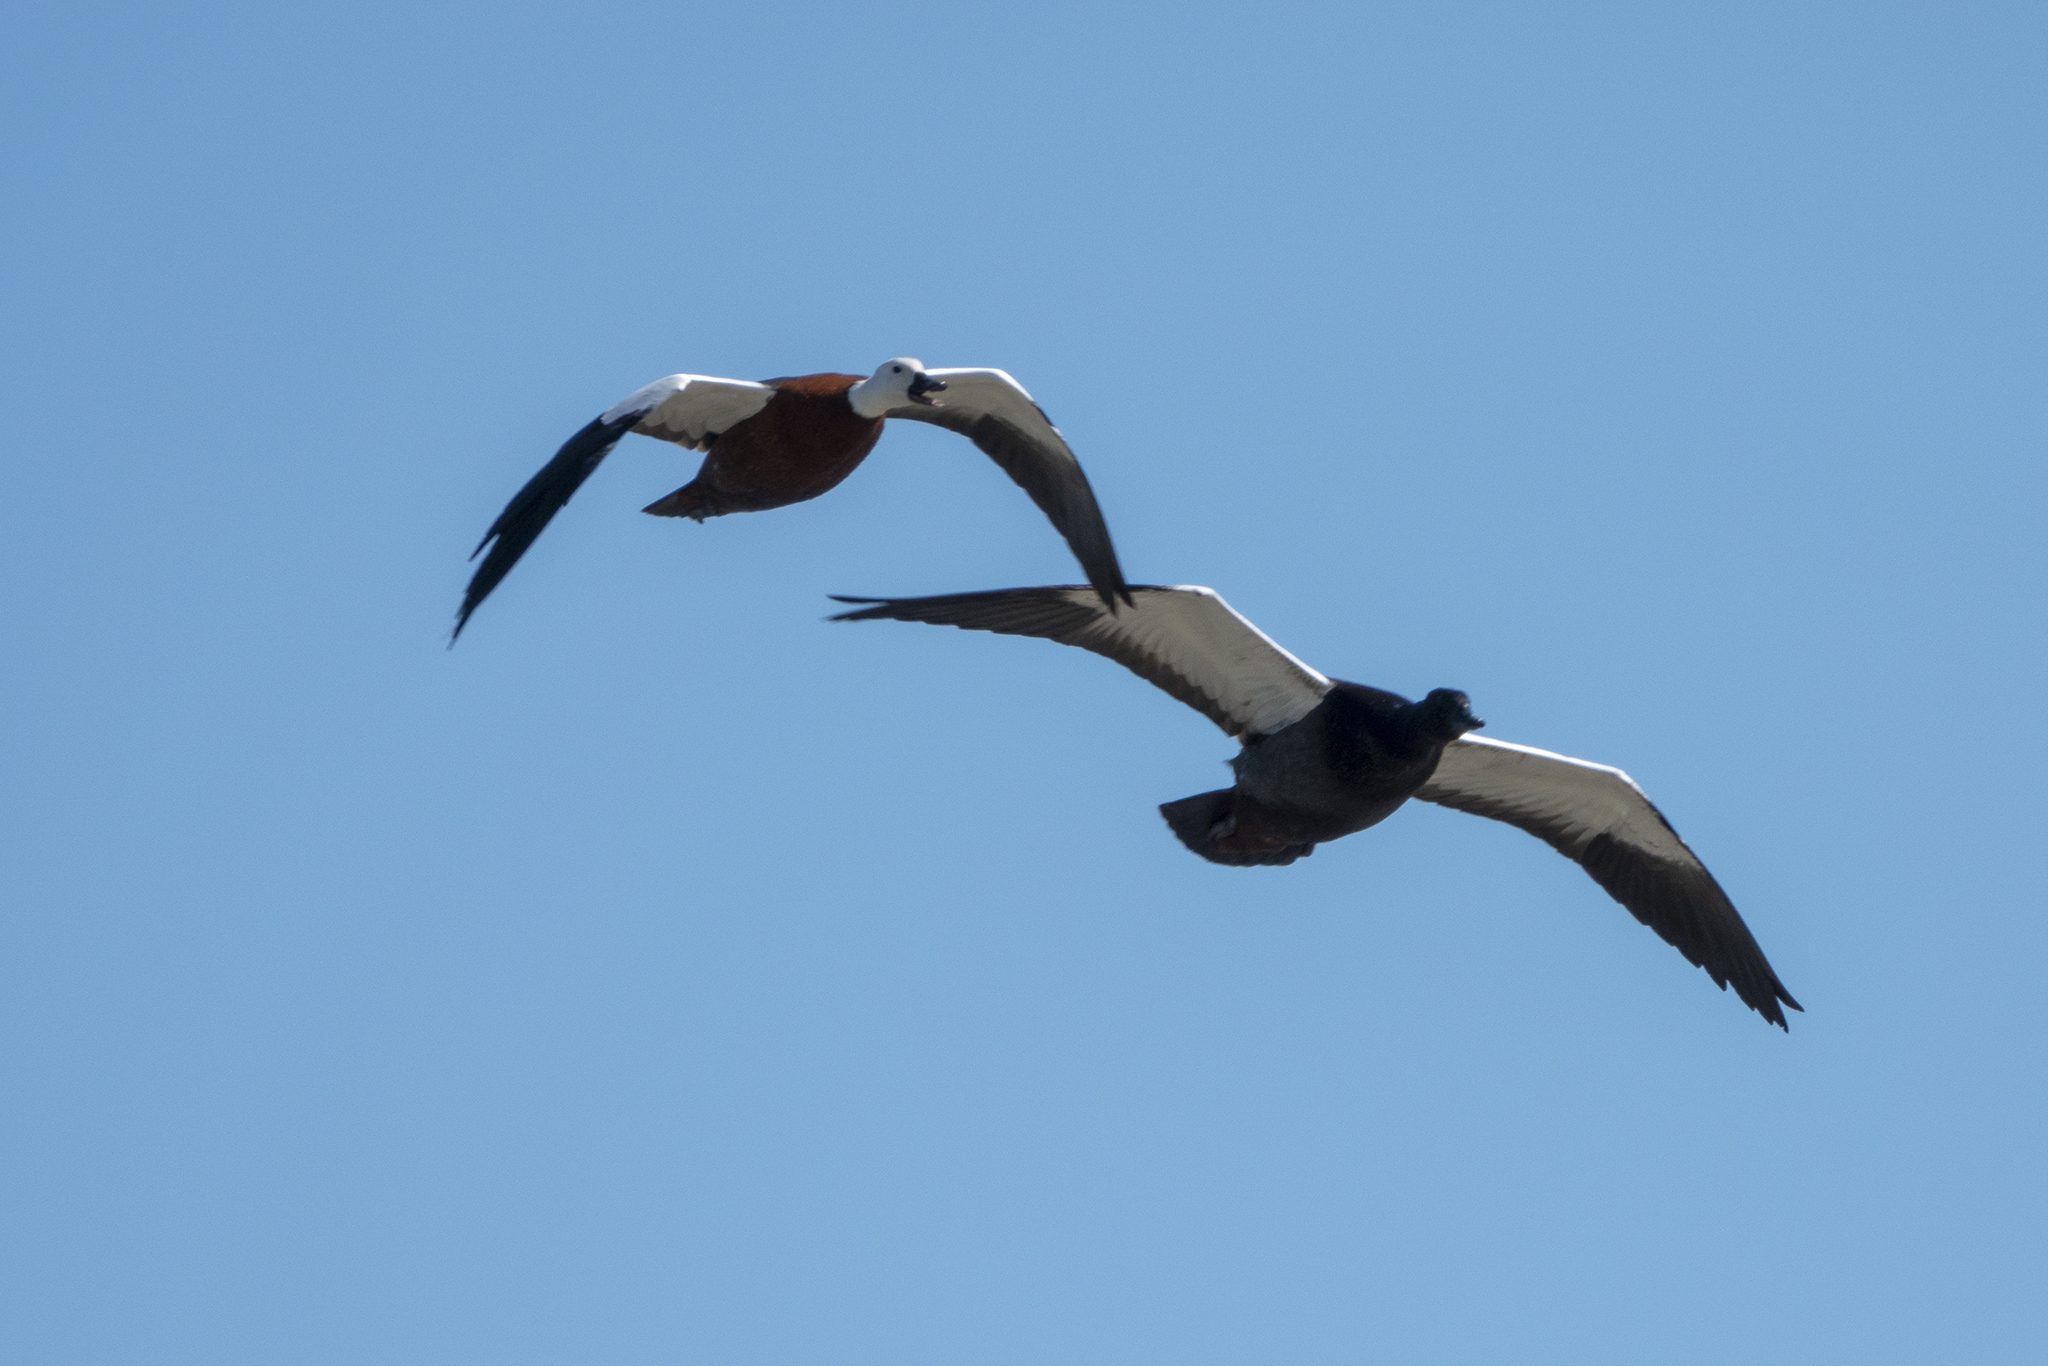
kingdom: Animalia
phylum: Chordata
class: Aves
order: Anseriformes
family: Anatidae
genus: Tadorna
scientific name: Tadorna variegata
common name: Paradise shelduck
